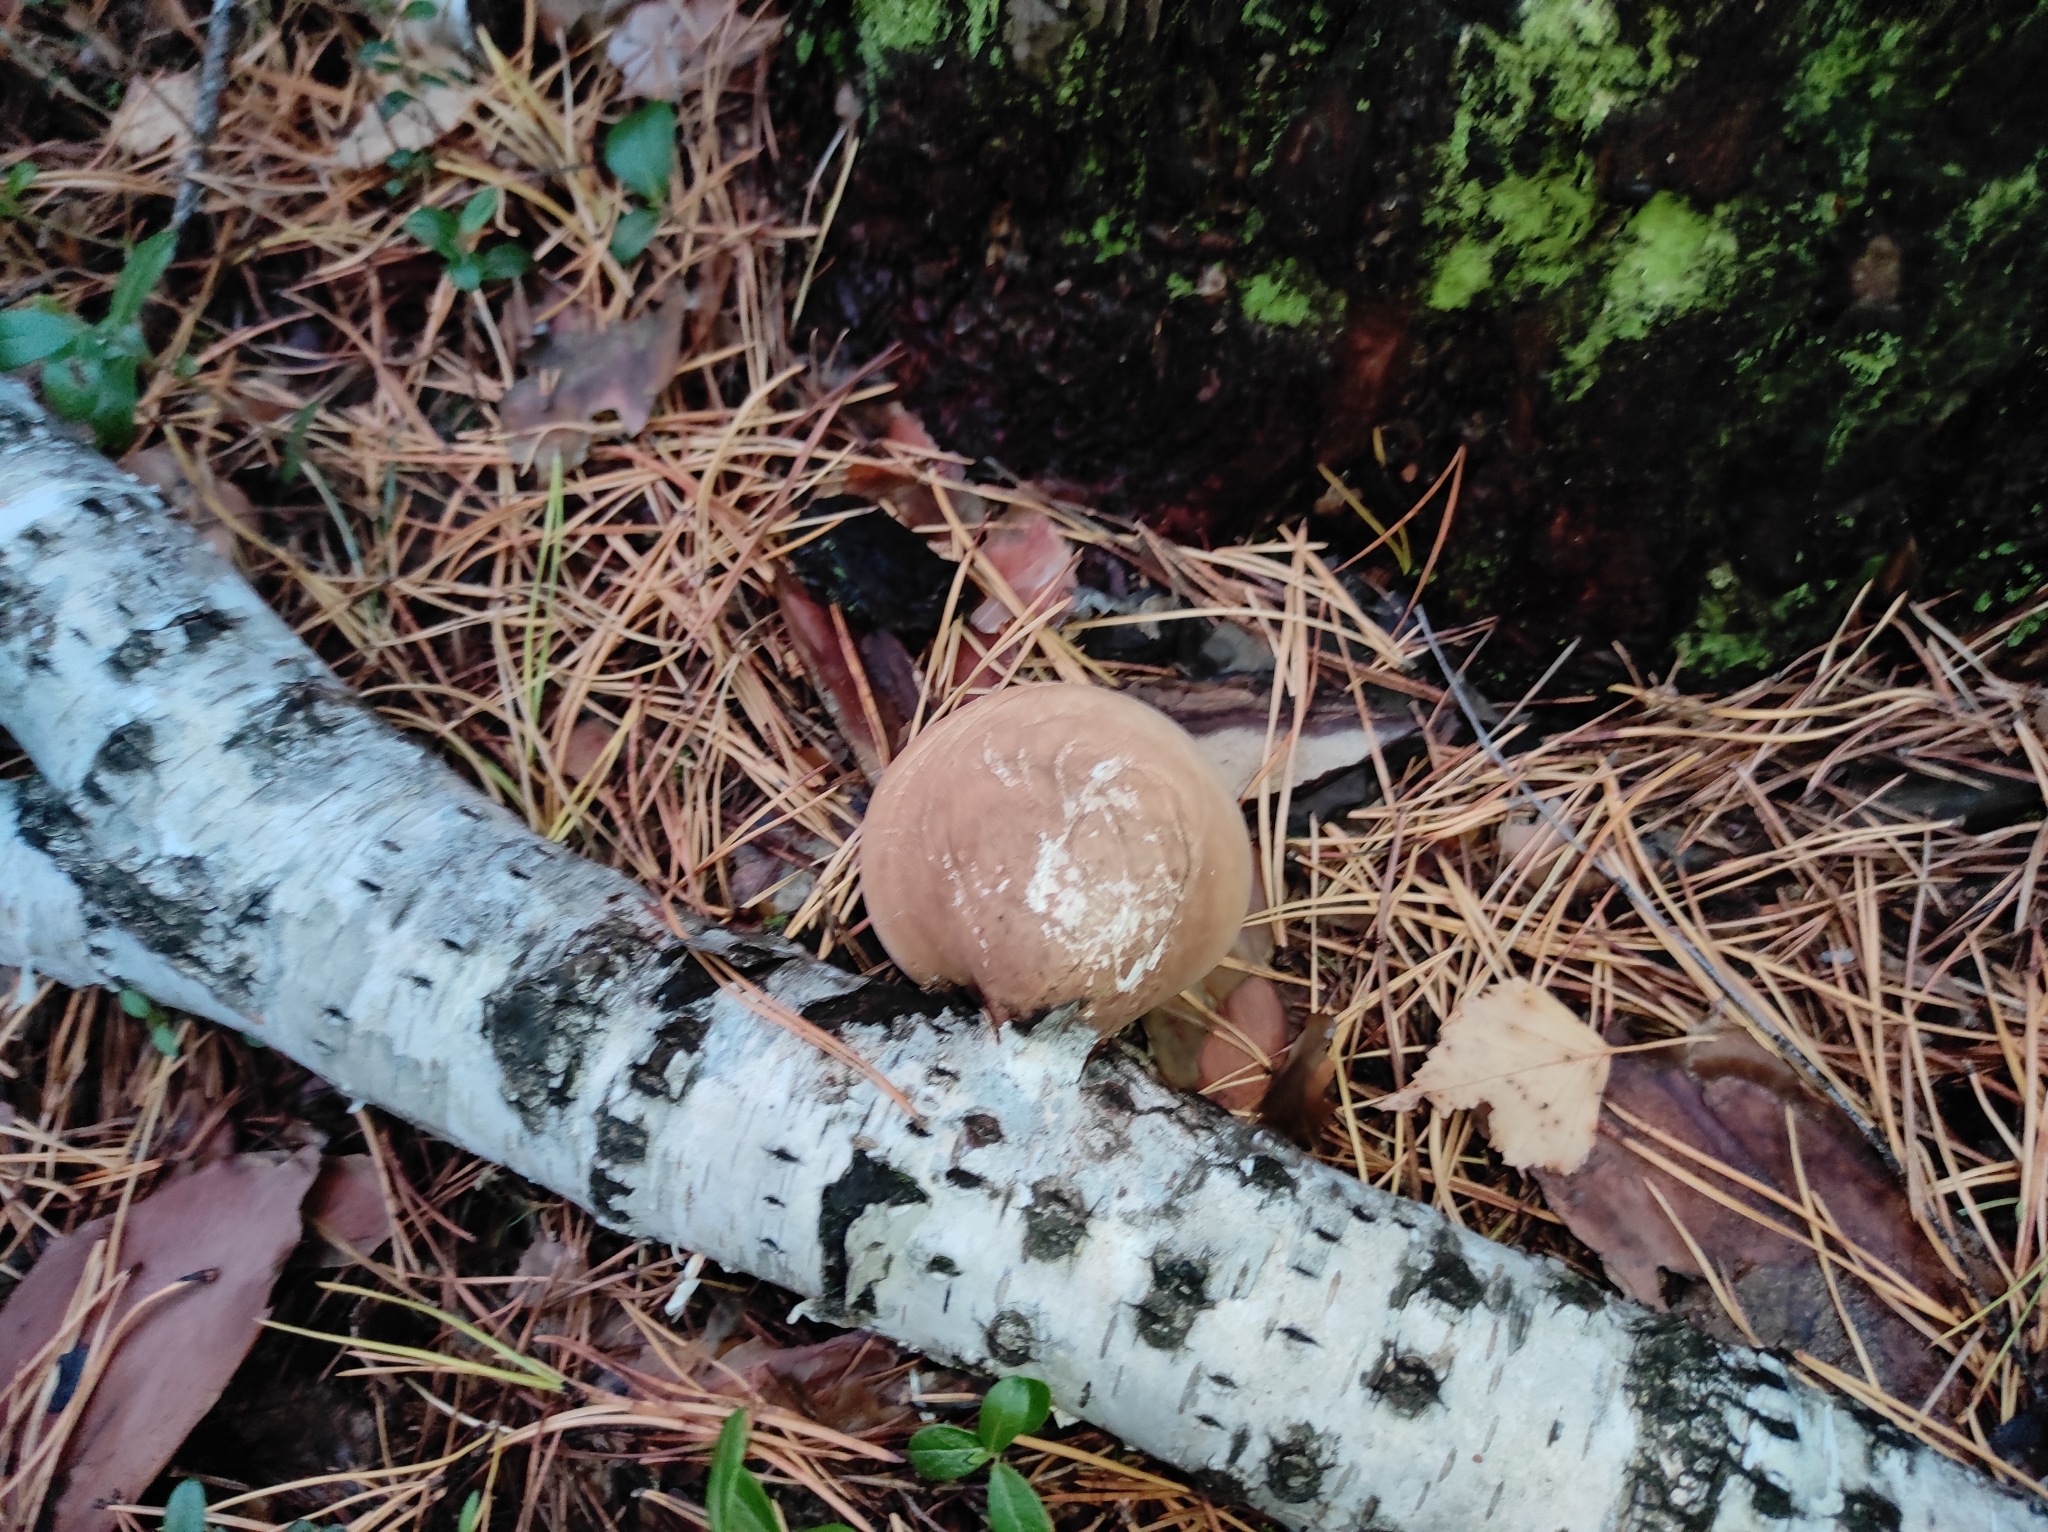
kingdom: Fungi
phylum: Basidiomycota
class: Agaricomycetes
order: Polyporales
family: Fomitopsidaceae
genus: Fomitopsis
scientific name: Fomitopsis betulina
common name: Birch polypore
